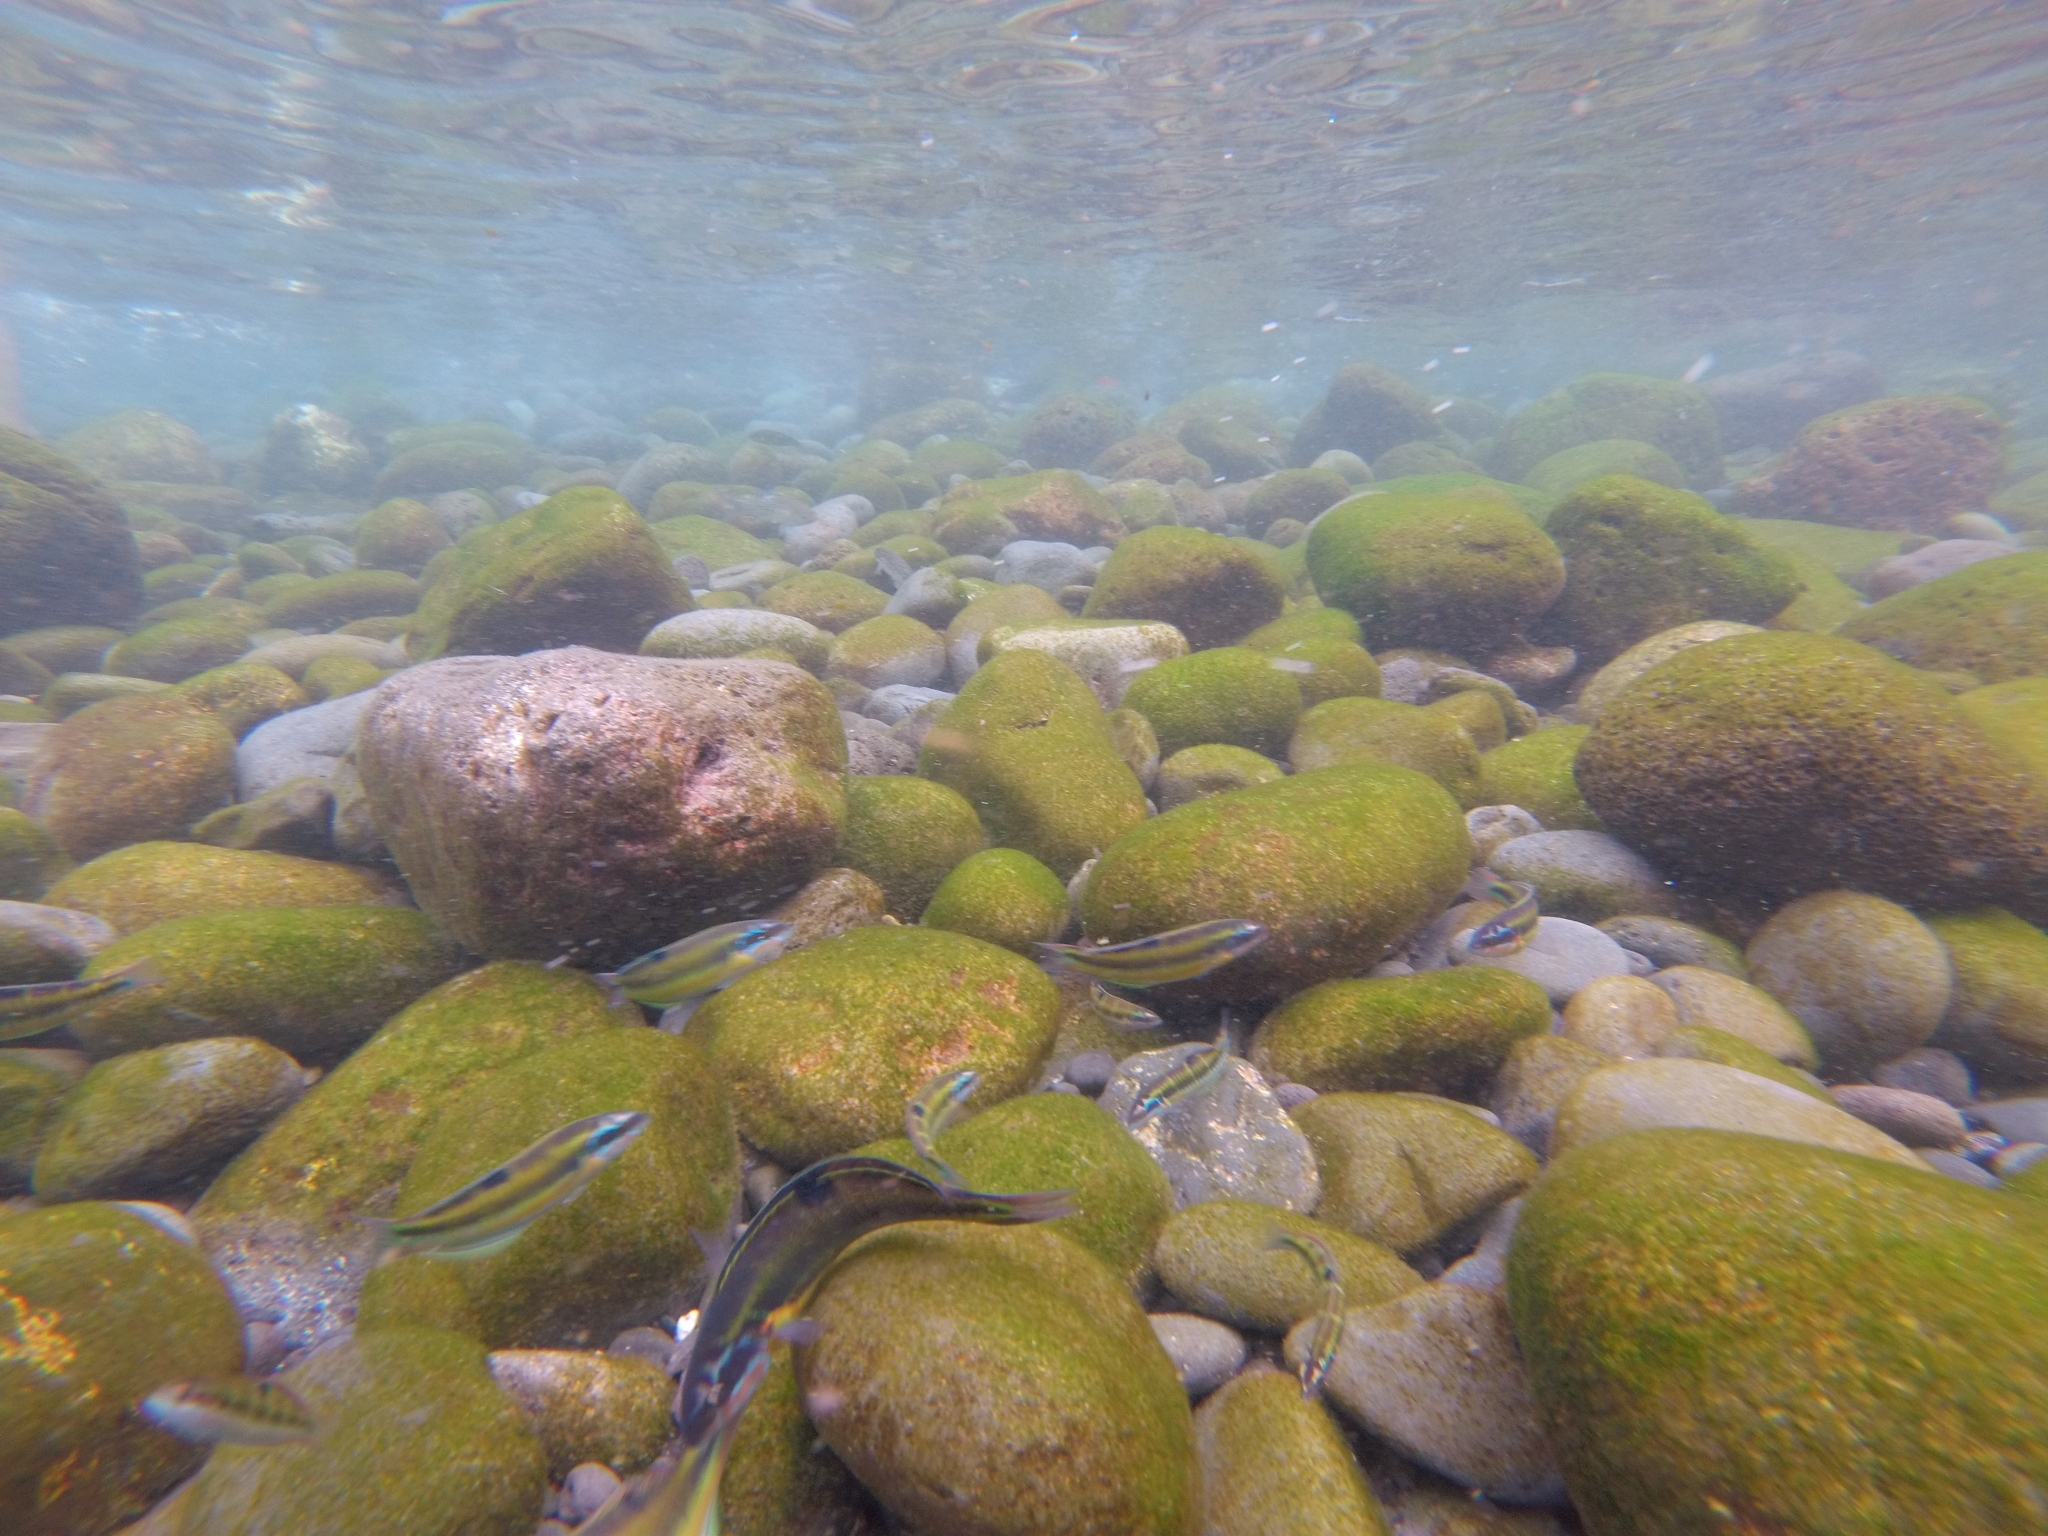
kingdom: Animalia
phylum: Chordata
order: Perciformes
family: Labridae
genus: Thalassoma
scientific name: Thalassoma pavo
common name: Ornate wrasse
